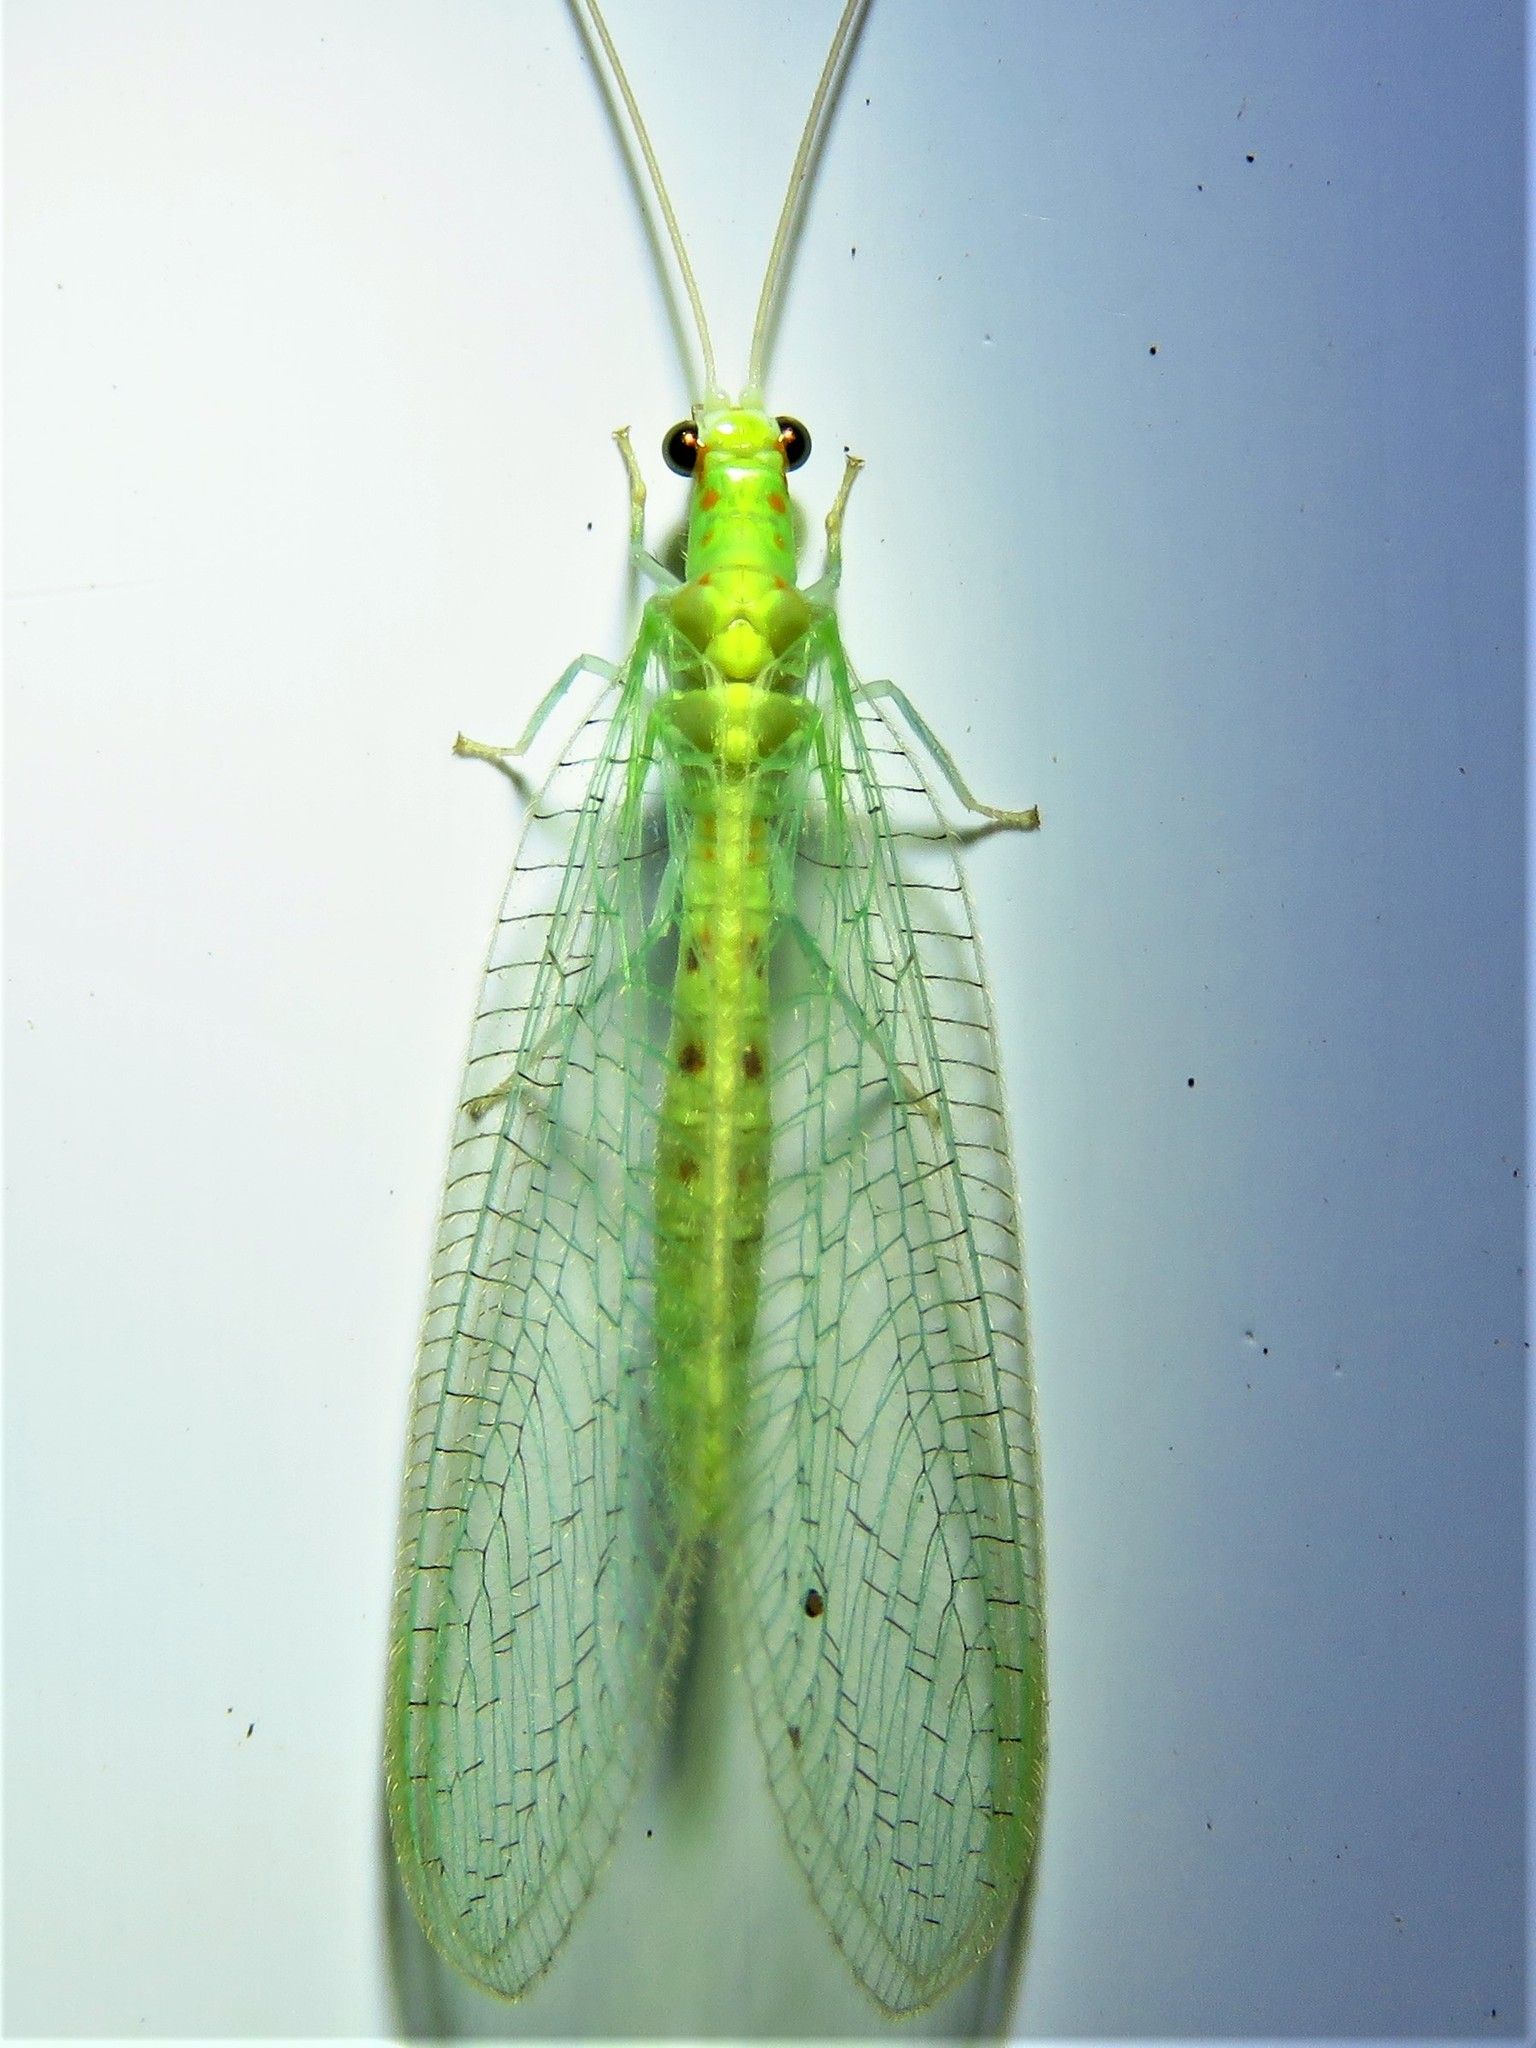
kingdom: Animalia
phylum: Arthropoda
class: Insecta
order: Neuroptera
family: Chrysopidae
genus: Chrysopa
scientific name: Chrysopa quadripunctata
